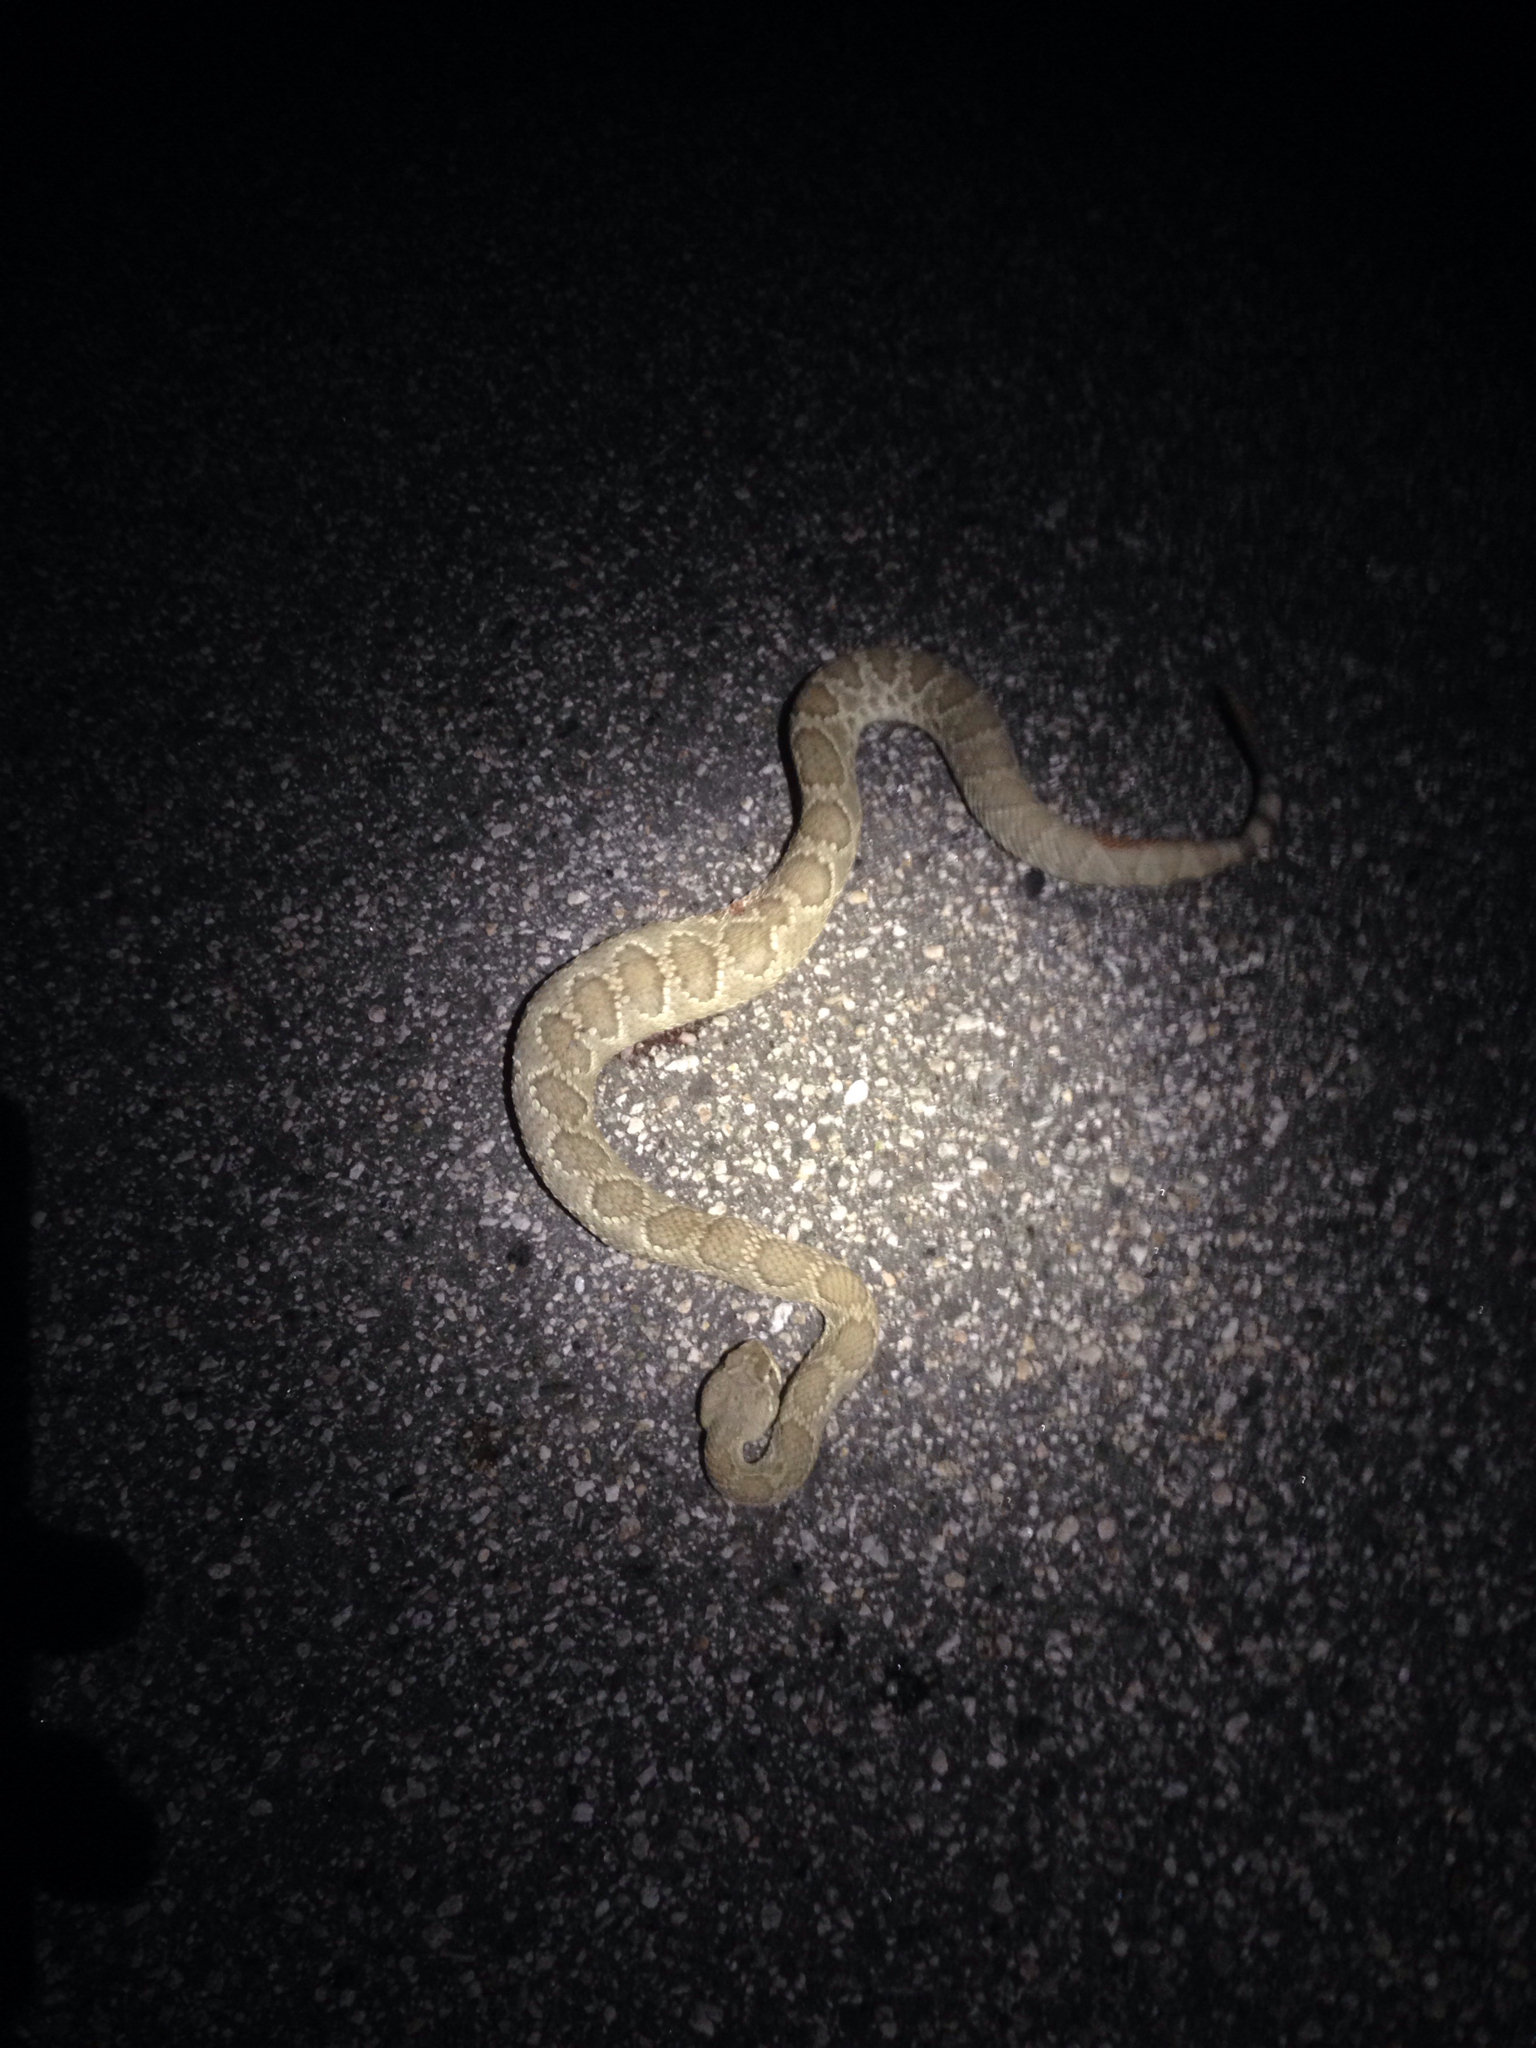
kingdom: Animalia
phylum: Chordata
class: Squamata
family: Viperidae
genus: Crotalus
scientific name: Crotalus scutulatus
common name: Scutulatus
